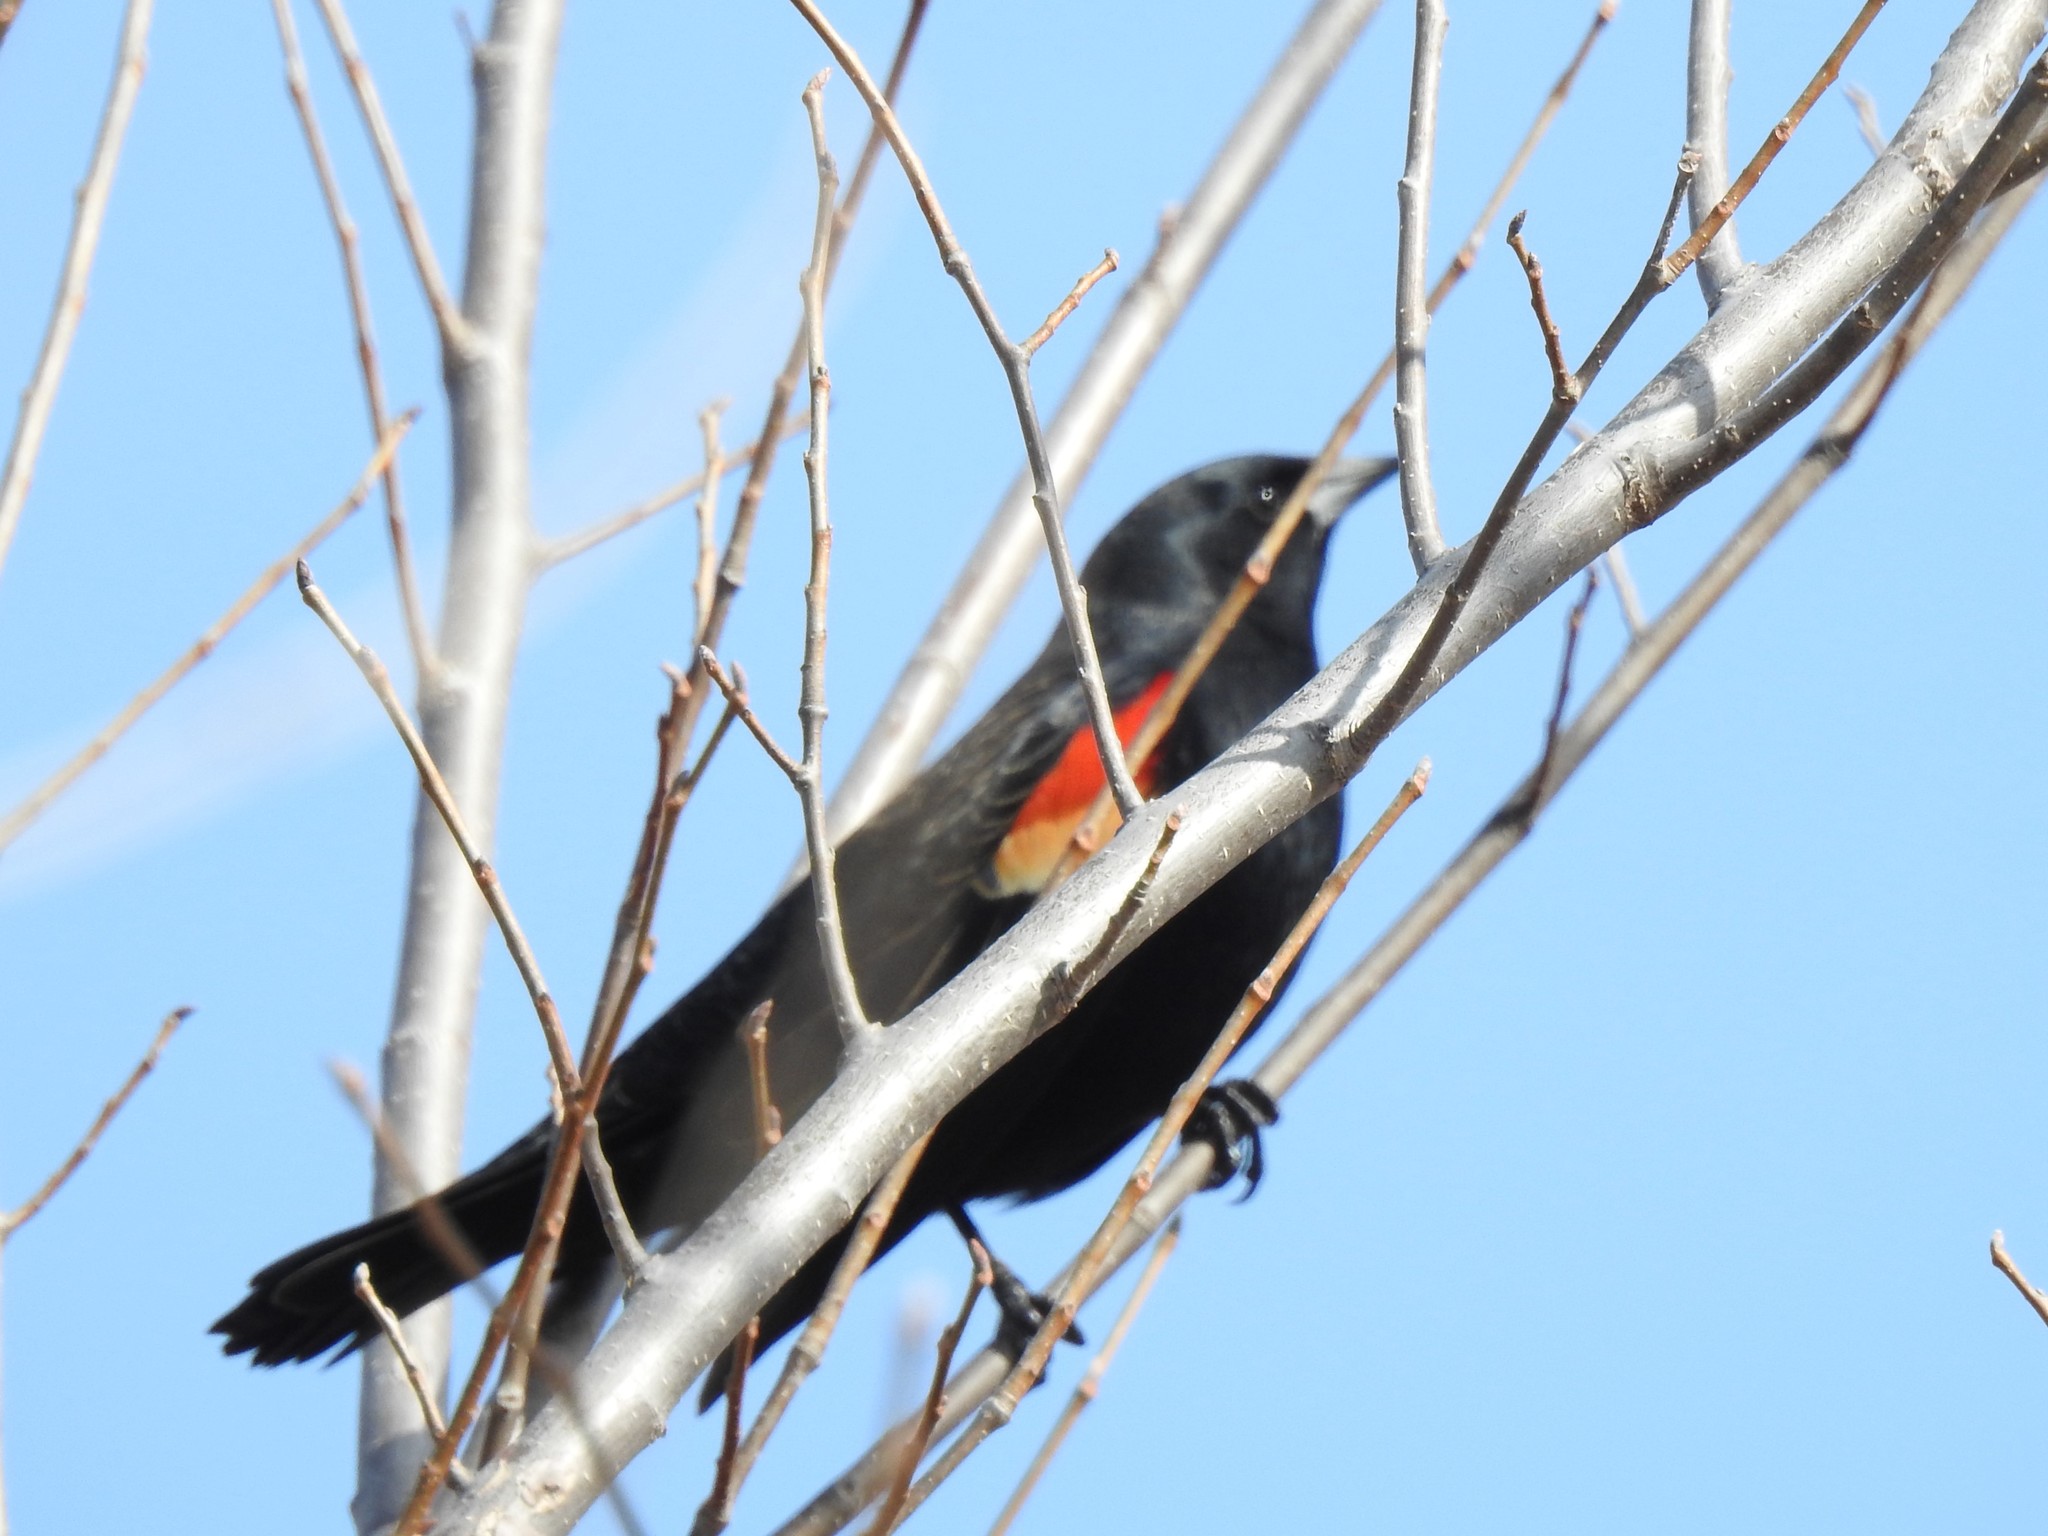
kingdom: Animalia
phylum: Chordata
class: Aves
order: Passeriformes
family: Icteridae
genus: Agelaius
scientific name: Agelaius phoeniceus
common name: Red-winged blackbird
